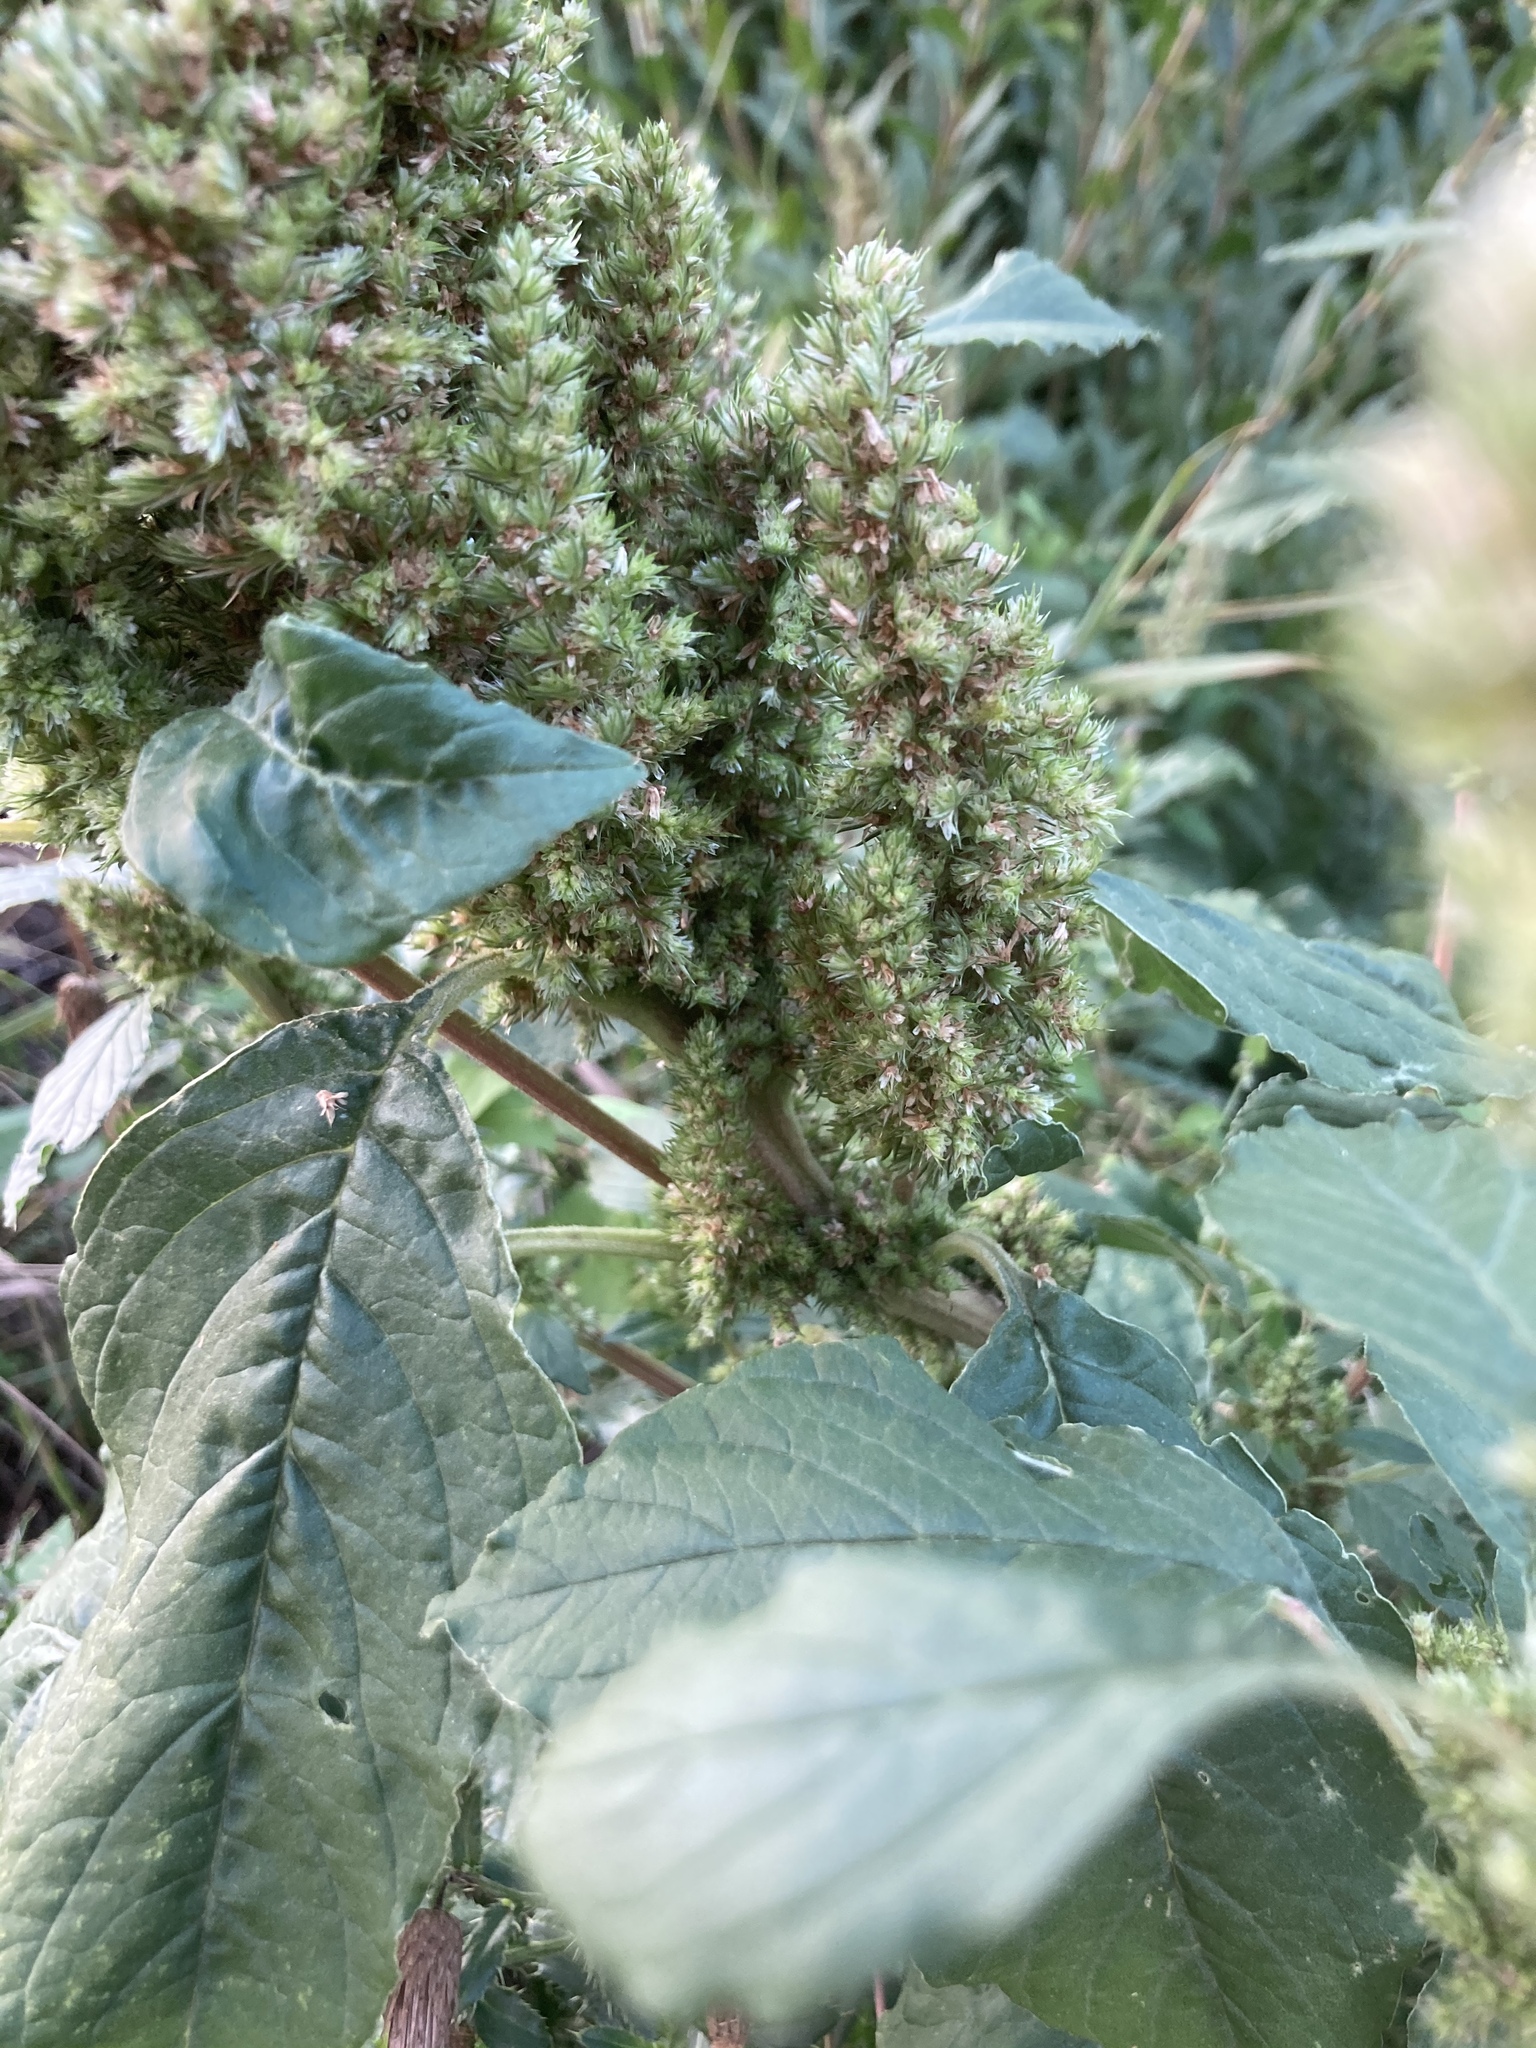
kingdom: Plantae
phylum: Tracheophyta
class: Magnoliopsida
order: Caryophyllales
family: Amaranthaceae
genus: Amaranthus
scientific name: Amaranthus retroflexus
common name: Redroot amaranth
